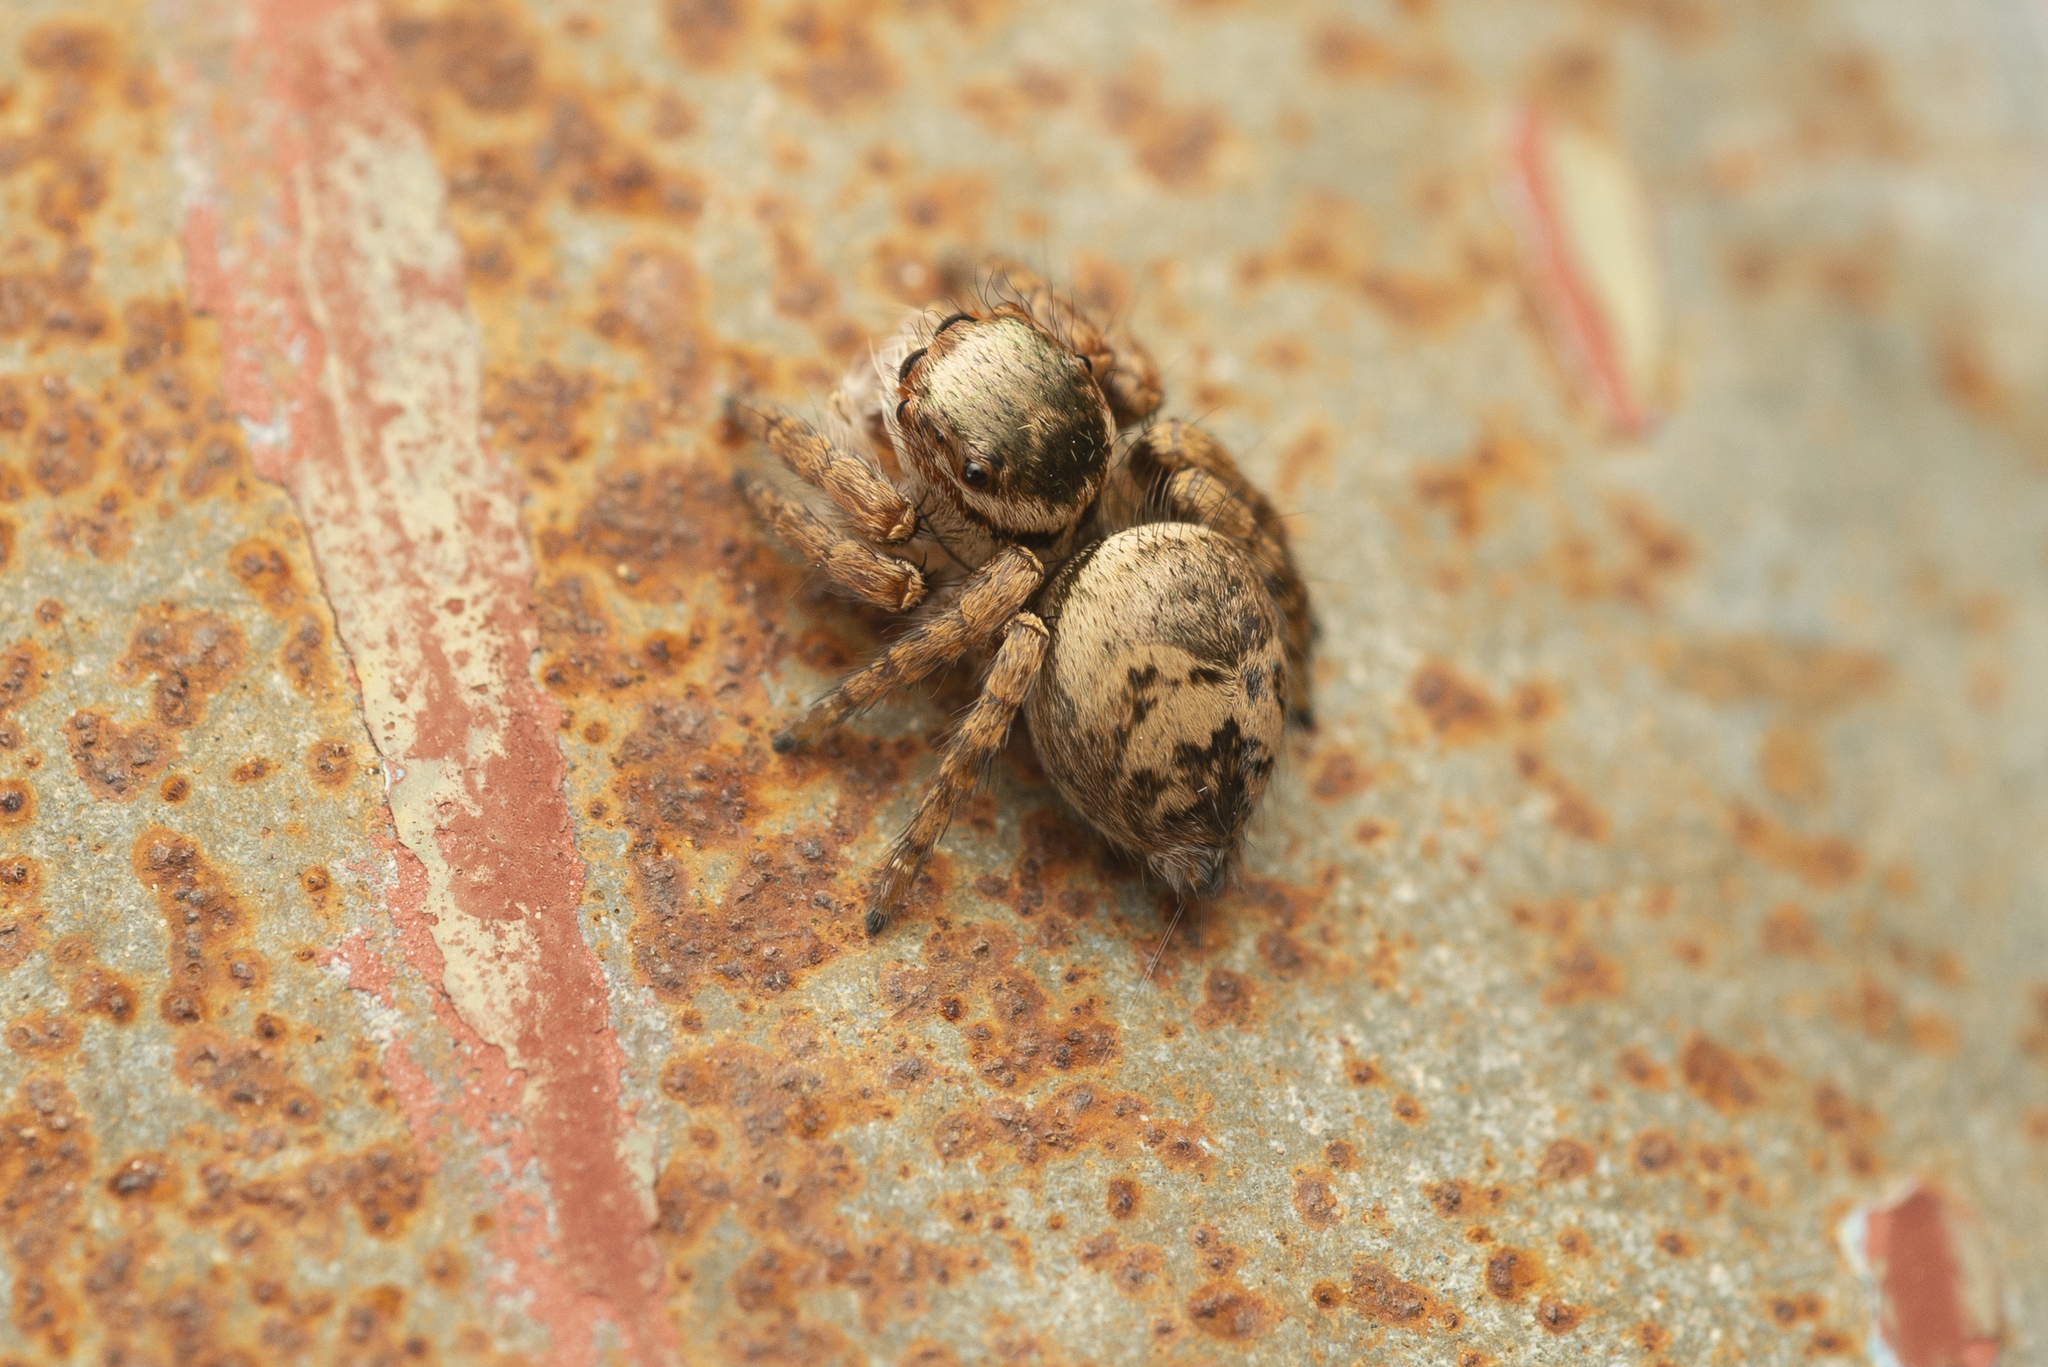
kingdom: Animalia
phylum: Arthropoda
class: Arachnida
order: Araneae
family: Salticidae
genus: Carrhotus
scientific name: Carrhotus viduus
